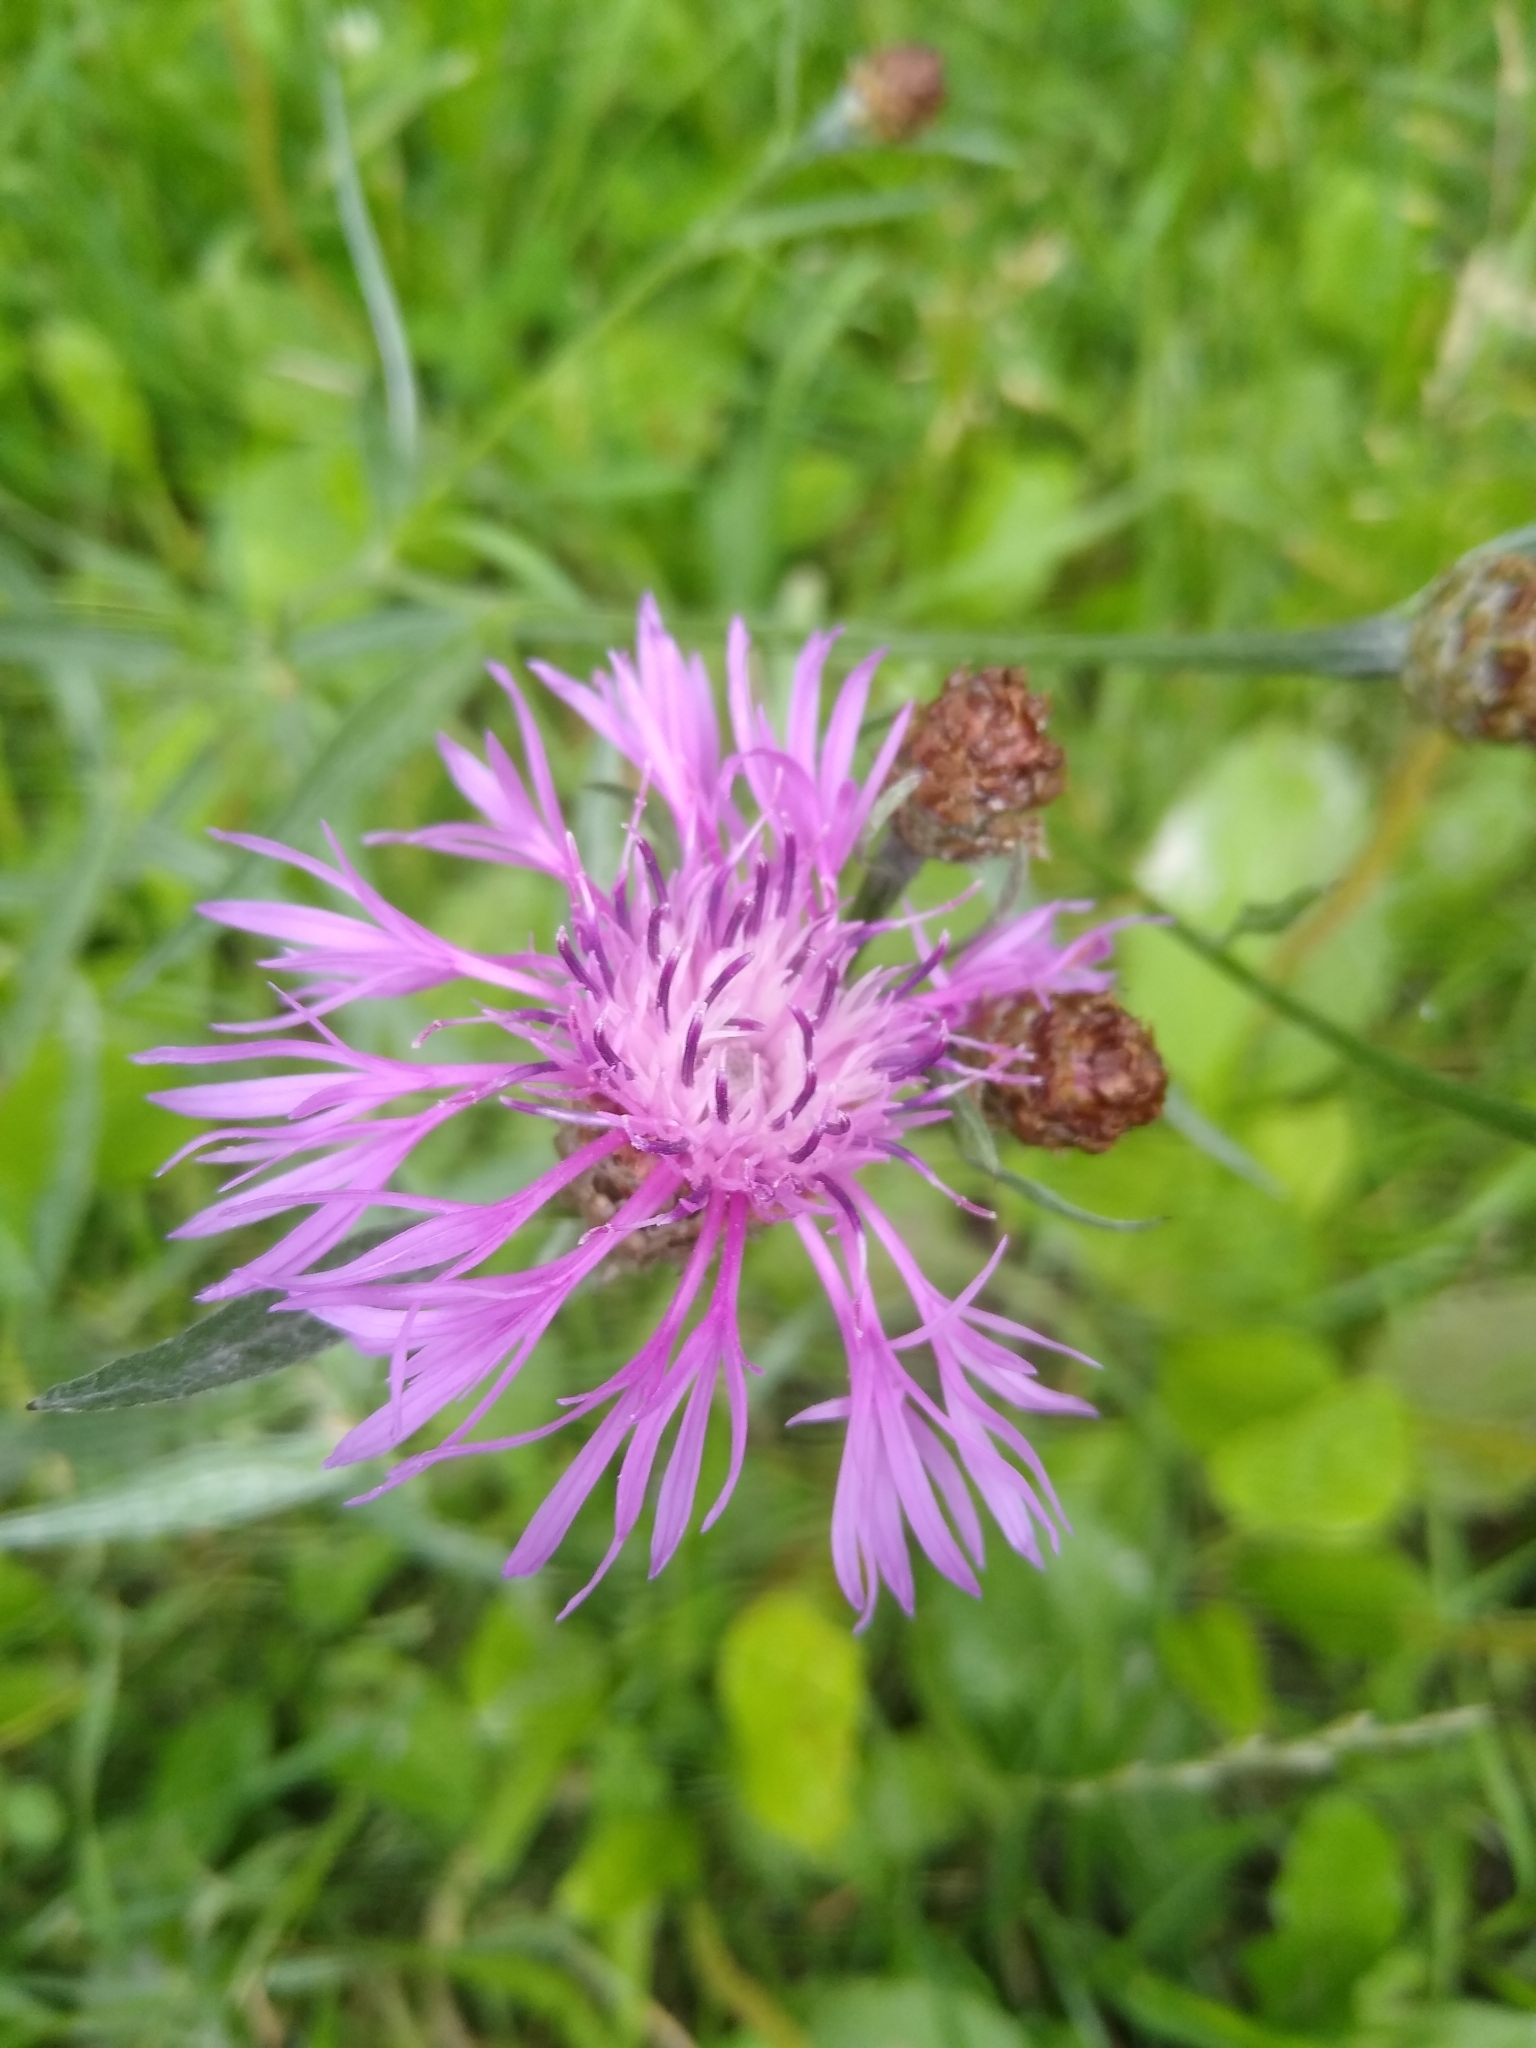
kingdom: Plantae
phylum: Tracheophyta
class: Magnoliopsida
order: Asterales
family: Asteraceae
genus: Centaurea
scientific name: Centaurea jacea
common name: Brown knapweed
